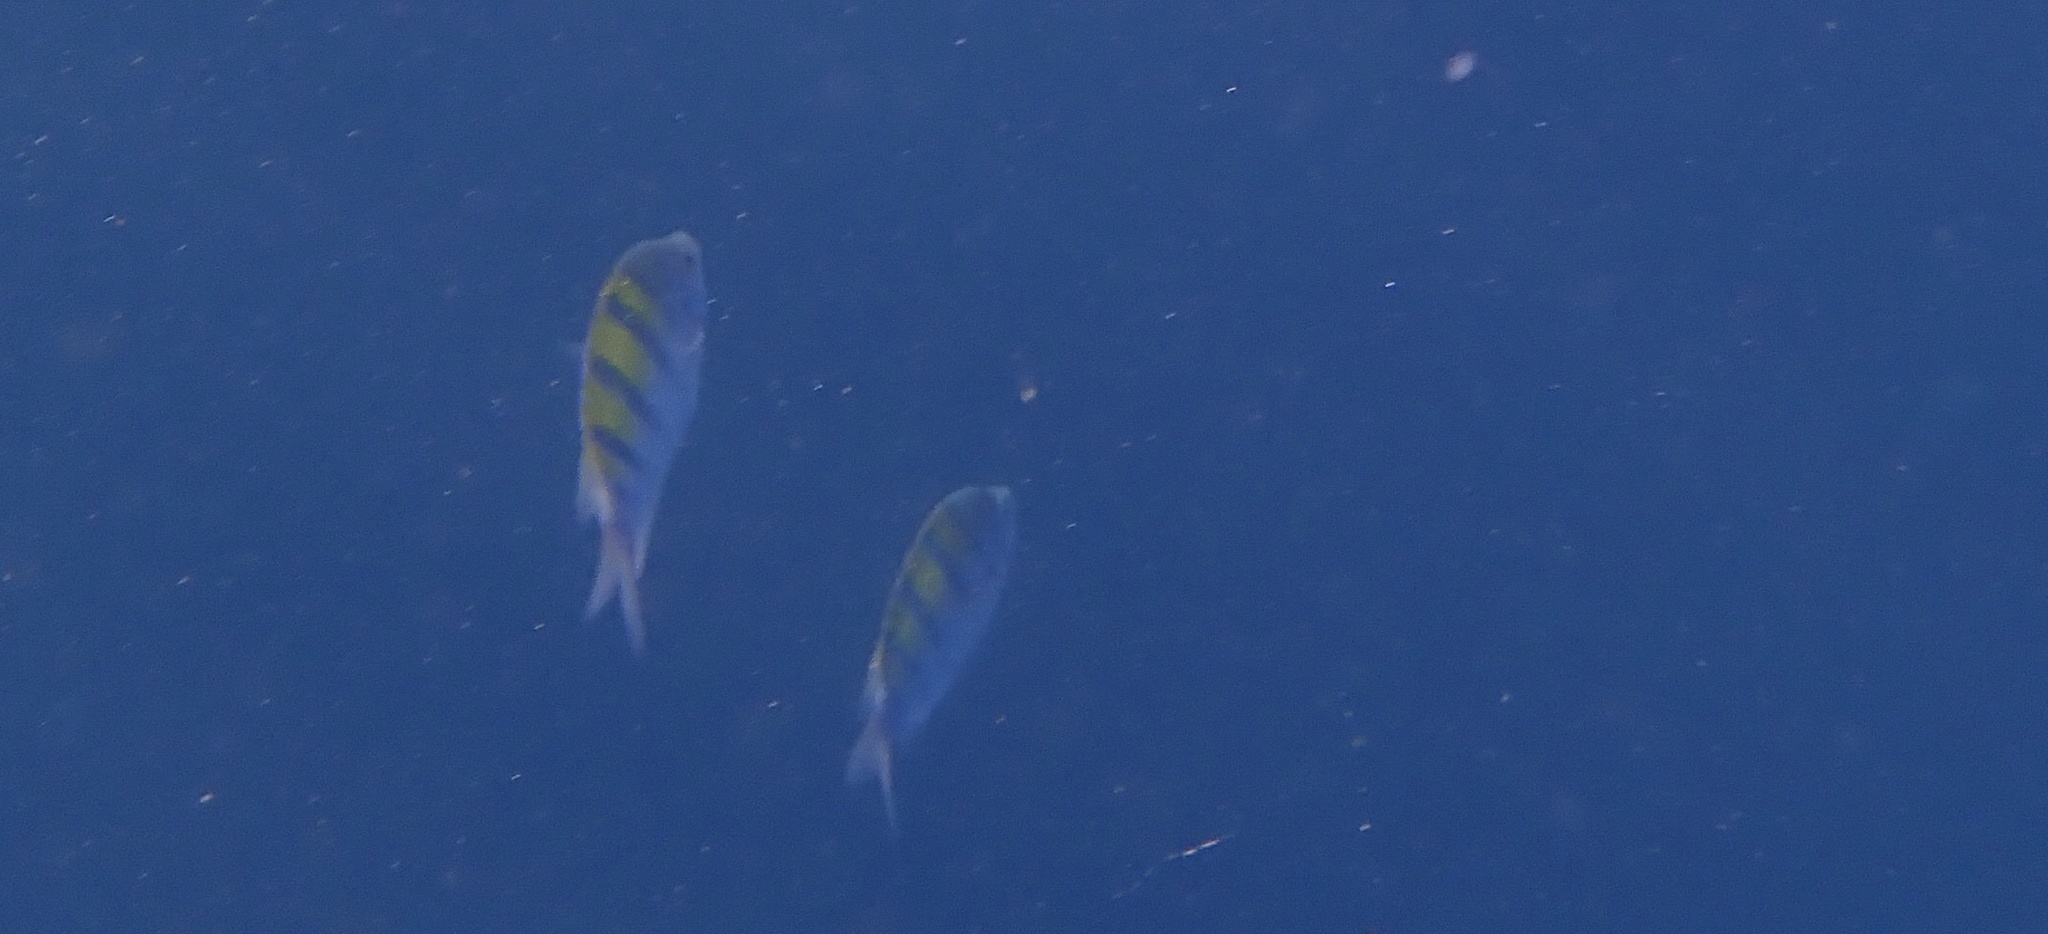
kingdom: Animalia
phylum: Chordata
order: Perciformes
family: Pomacentridae
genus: Abudefduf
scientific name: Abudefduf troschelii
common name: Panamic sergeant major
